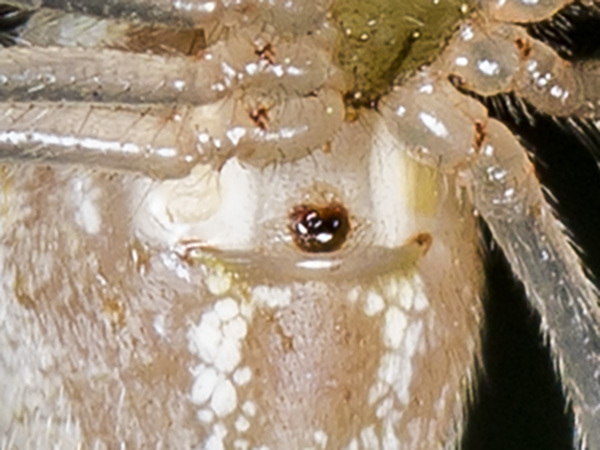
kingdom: Animalia
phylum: Arthropoda
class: Arachnida
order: Araneae
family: Theridiidae
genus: Enoplognatha
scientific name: Enoplognatha submargarita
